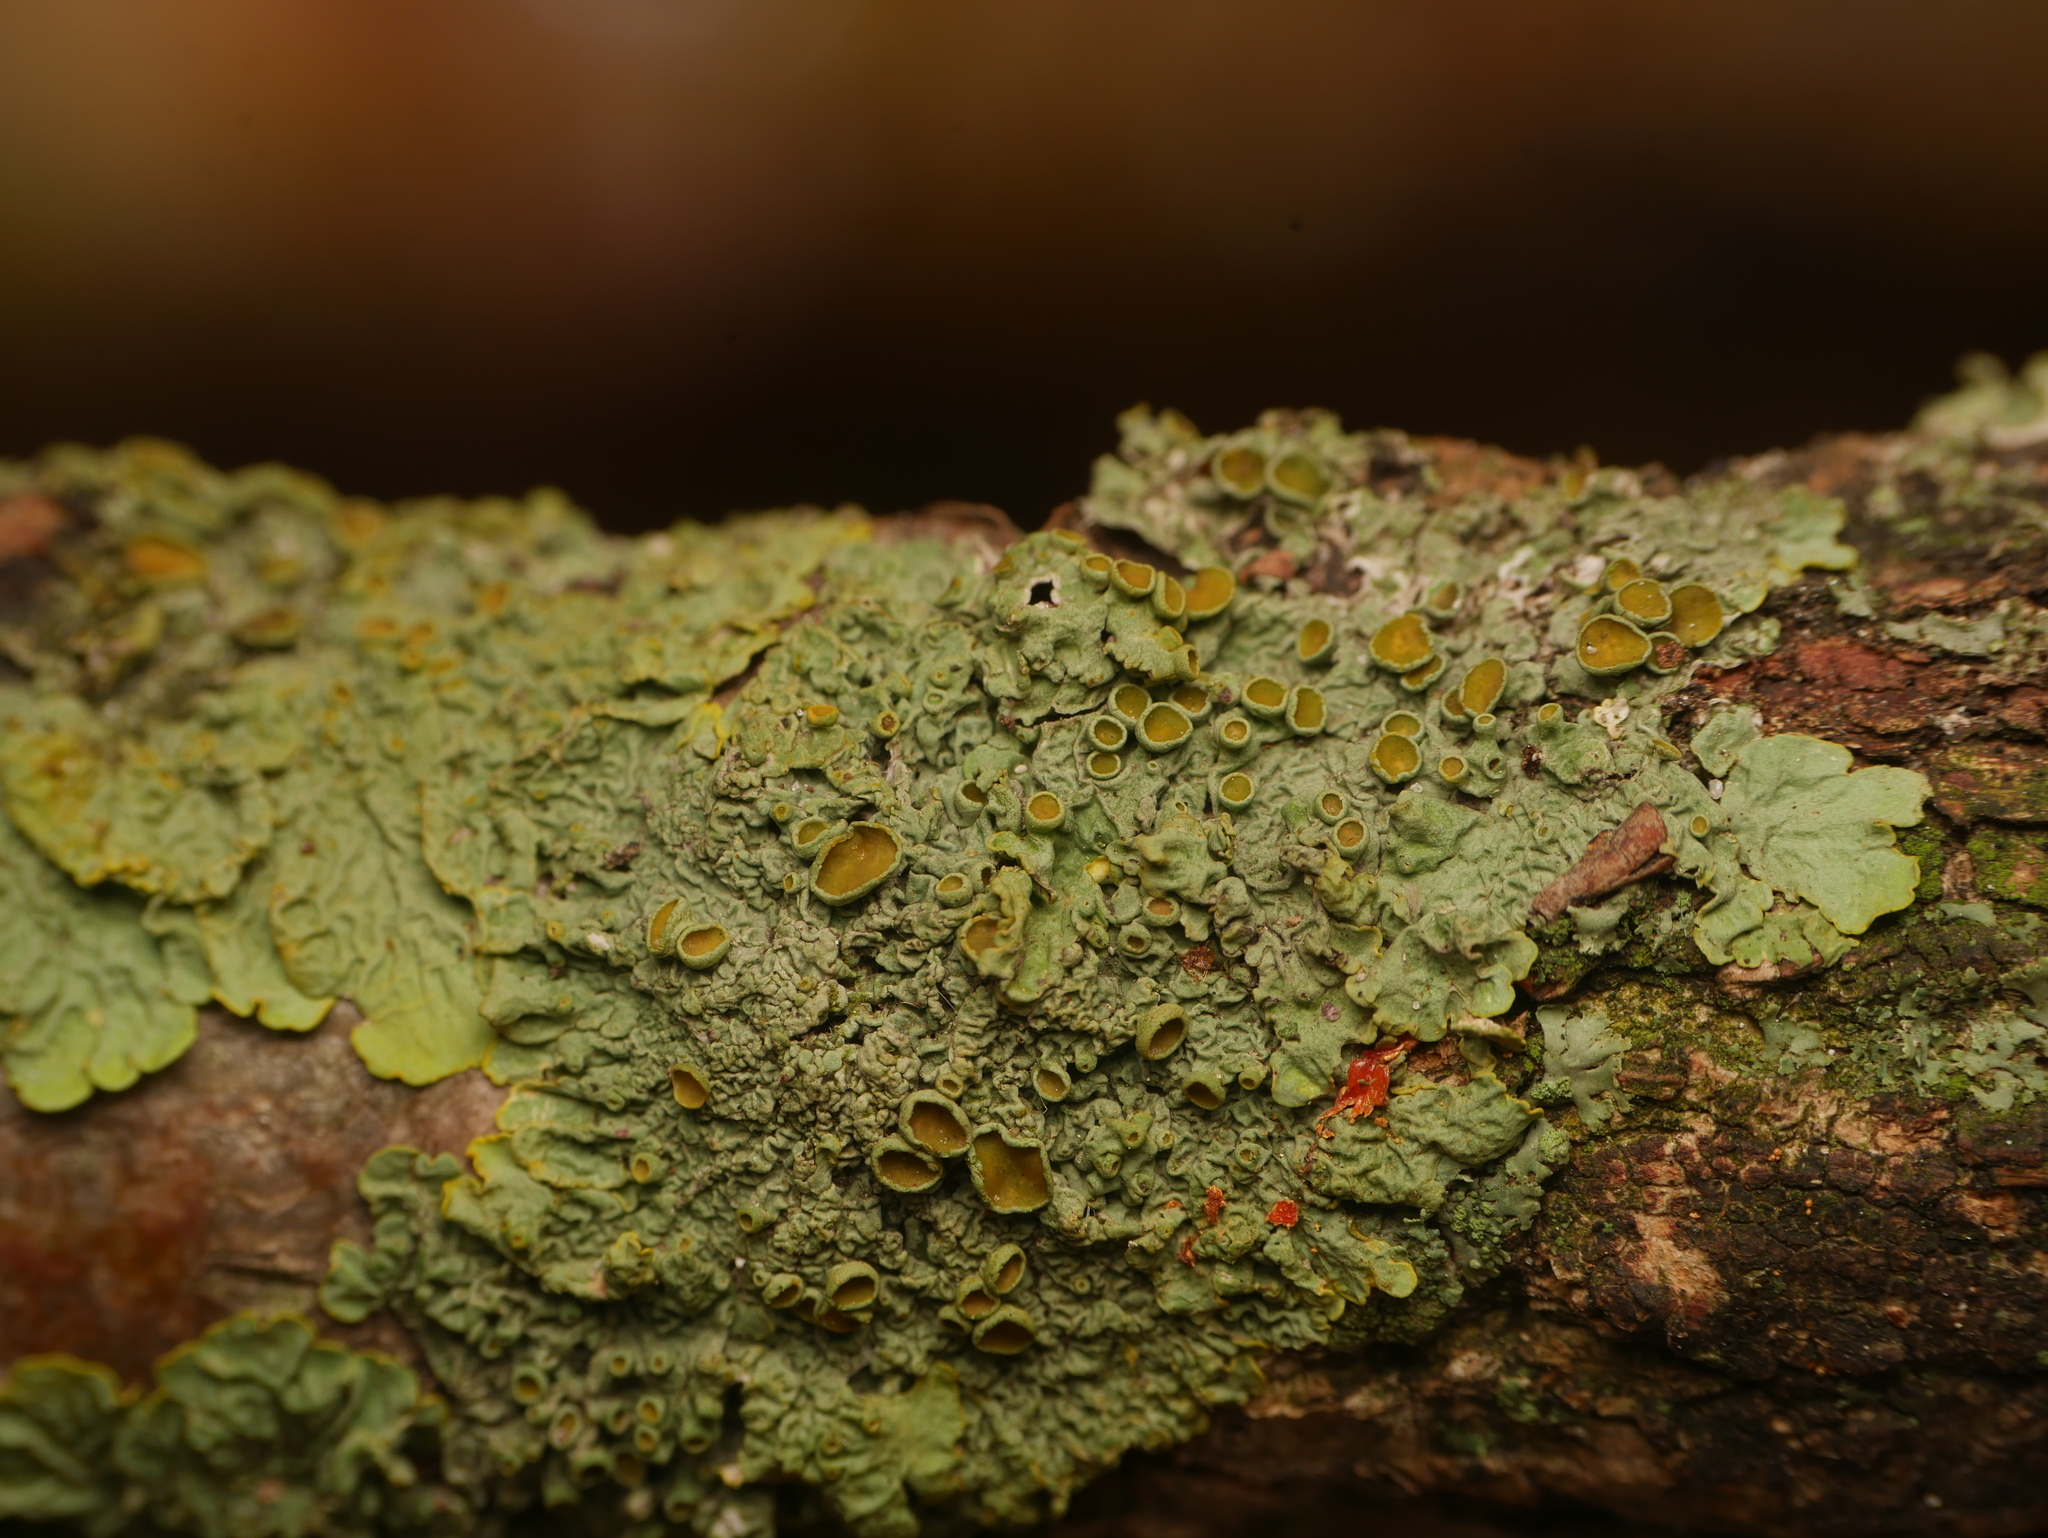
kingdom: Fungi
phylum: Ascomycota
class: Lecanoromycetes
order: Teloschistales
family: Teloschistaceae
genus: Xanthoria
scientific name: Xanthoria parietina
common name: Common orange lichen
